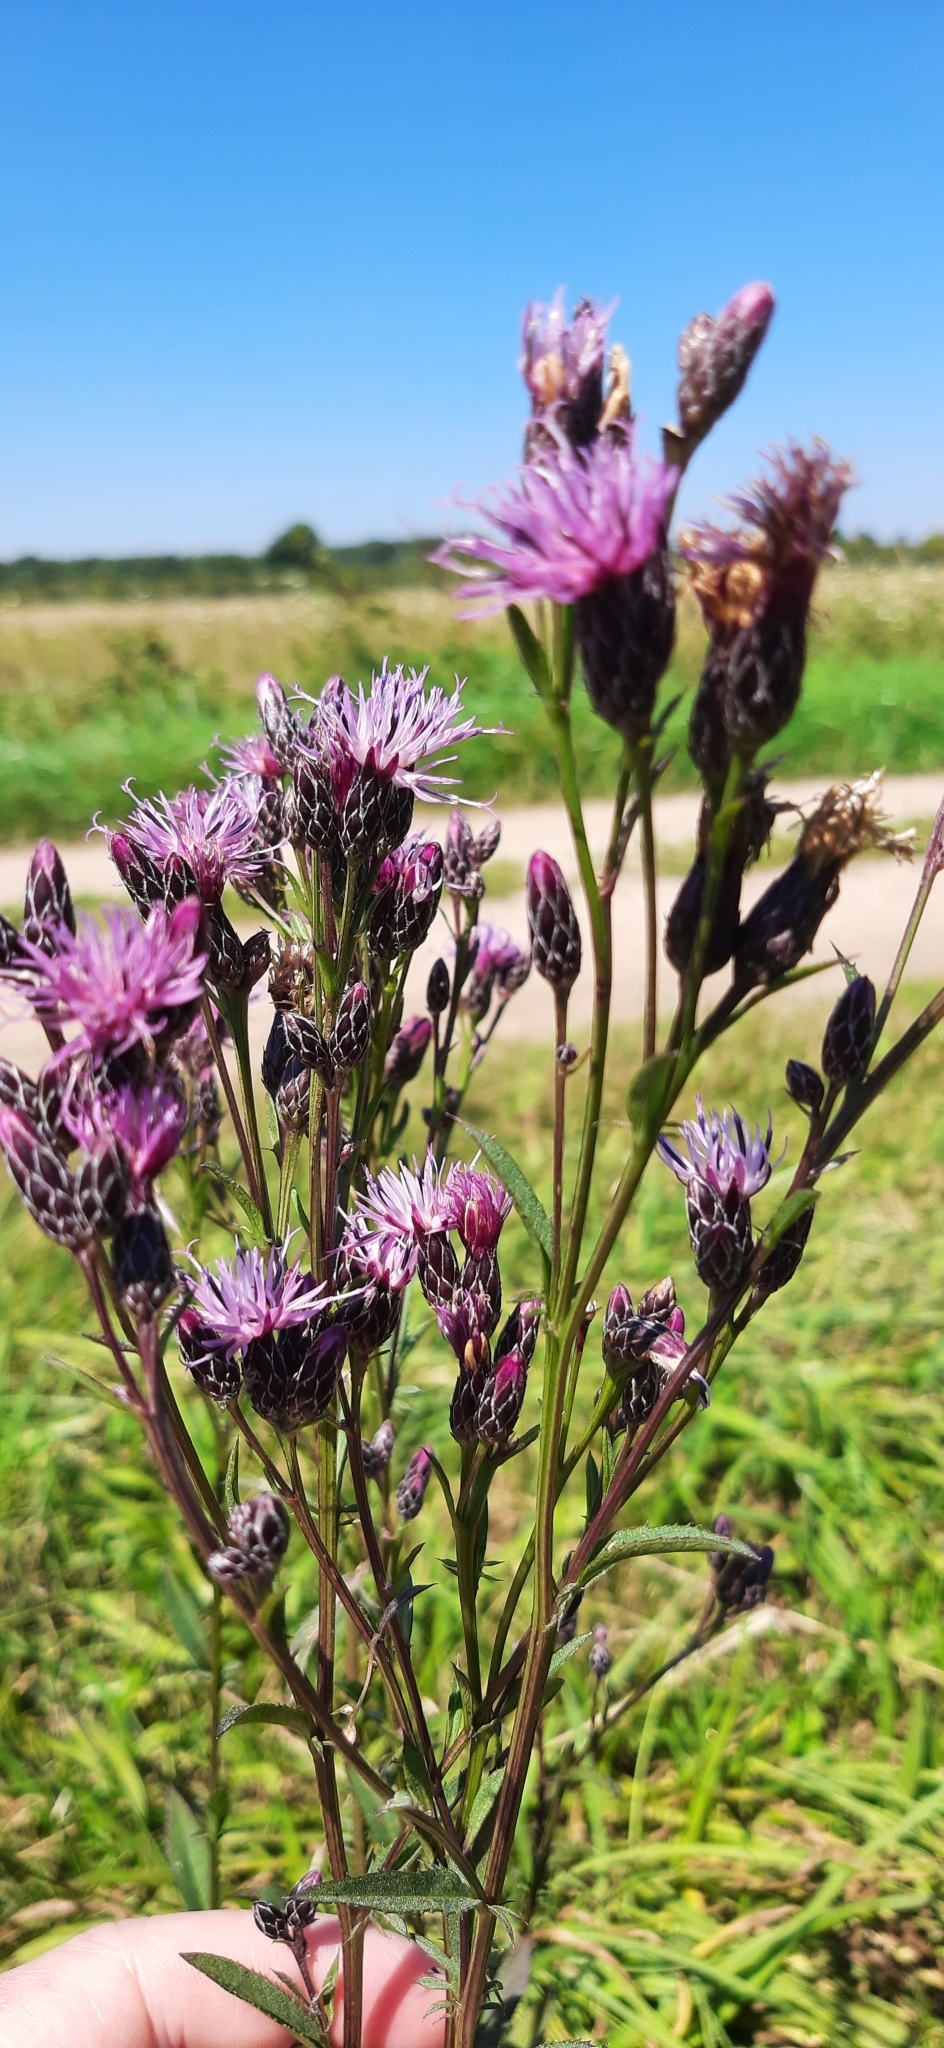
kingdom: Plantae
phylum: Tracheophyta
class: Magnoliopsida
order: Asterales
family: Asteraceae
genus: Serratula
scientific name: Serratula tinctoria
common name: Saw-wort
